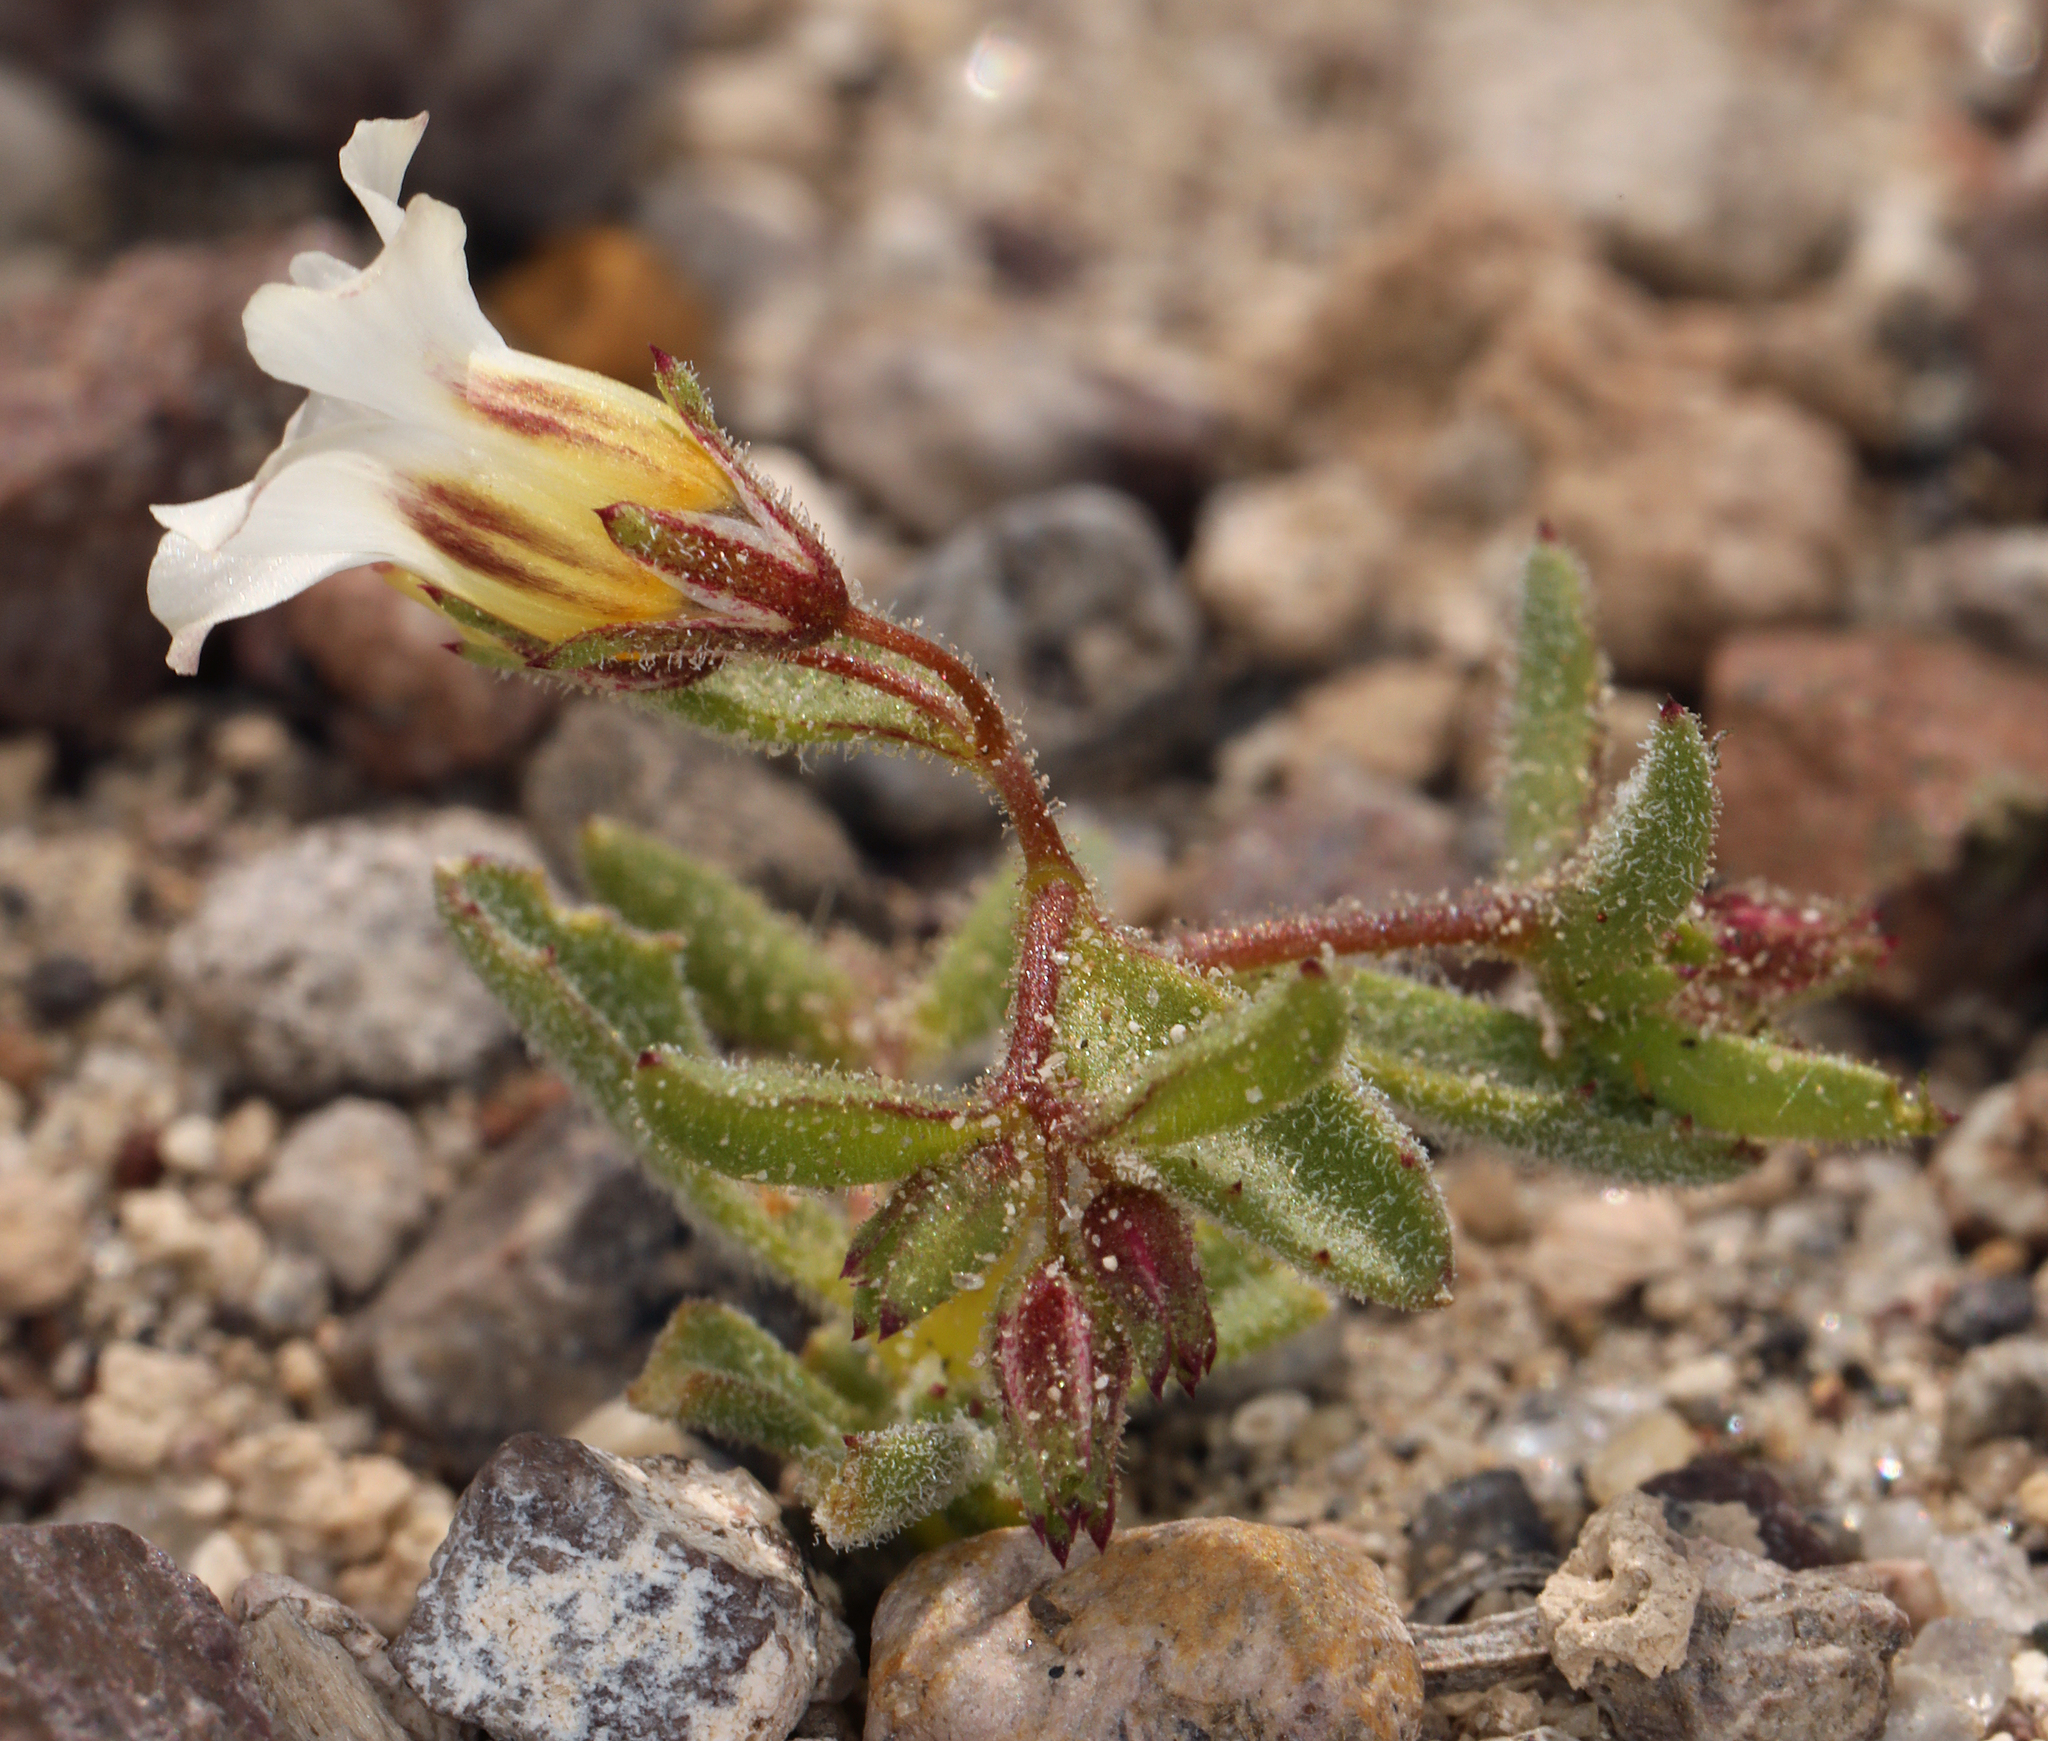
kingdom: Plantae
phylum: Tracheophyta
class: Magnoliopsida
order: Ericales
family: Polemoniaceae
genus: Linanthus
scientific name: Linanthus campanulatus
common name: Bellshape gilia
